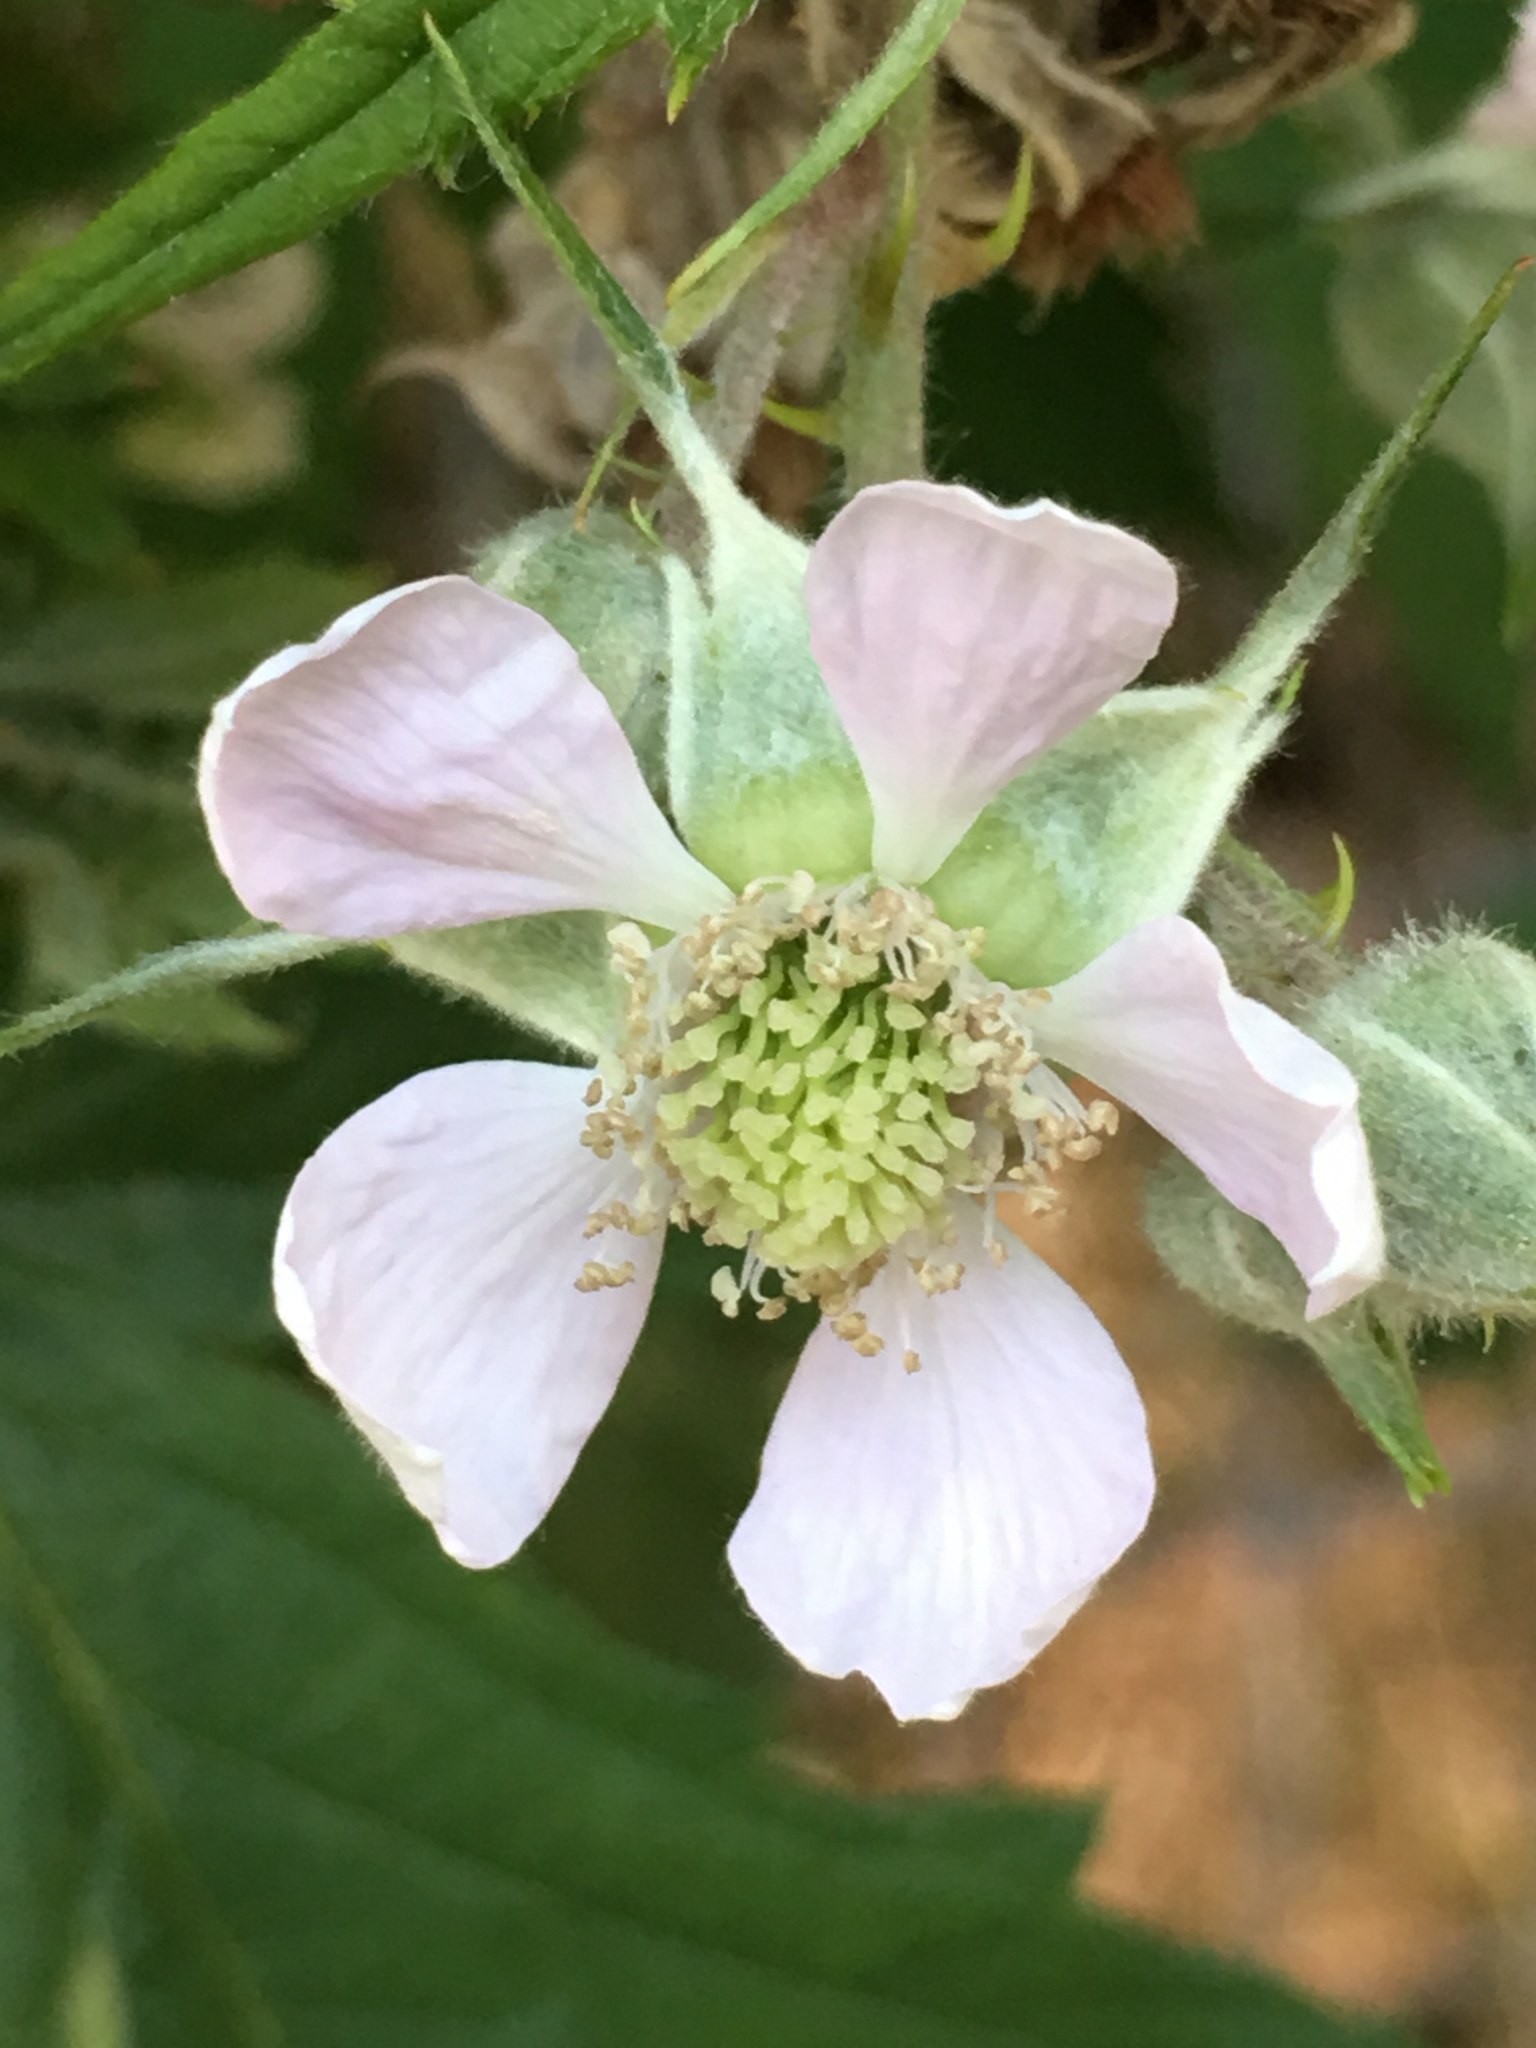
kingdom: Plantae
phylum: Tracheophyta
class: Magnoliopsida
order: Rosales
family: Rosaceae
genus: Rubus
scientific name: Rubus laciniatus
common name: Evergreen blackberry
